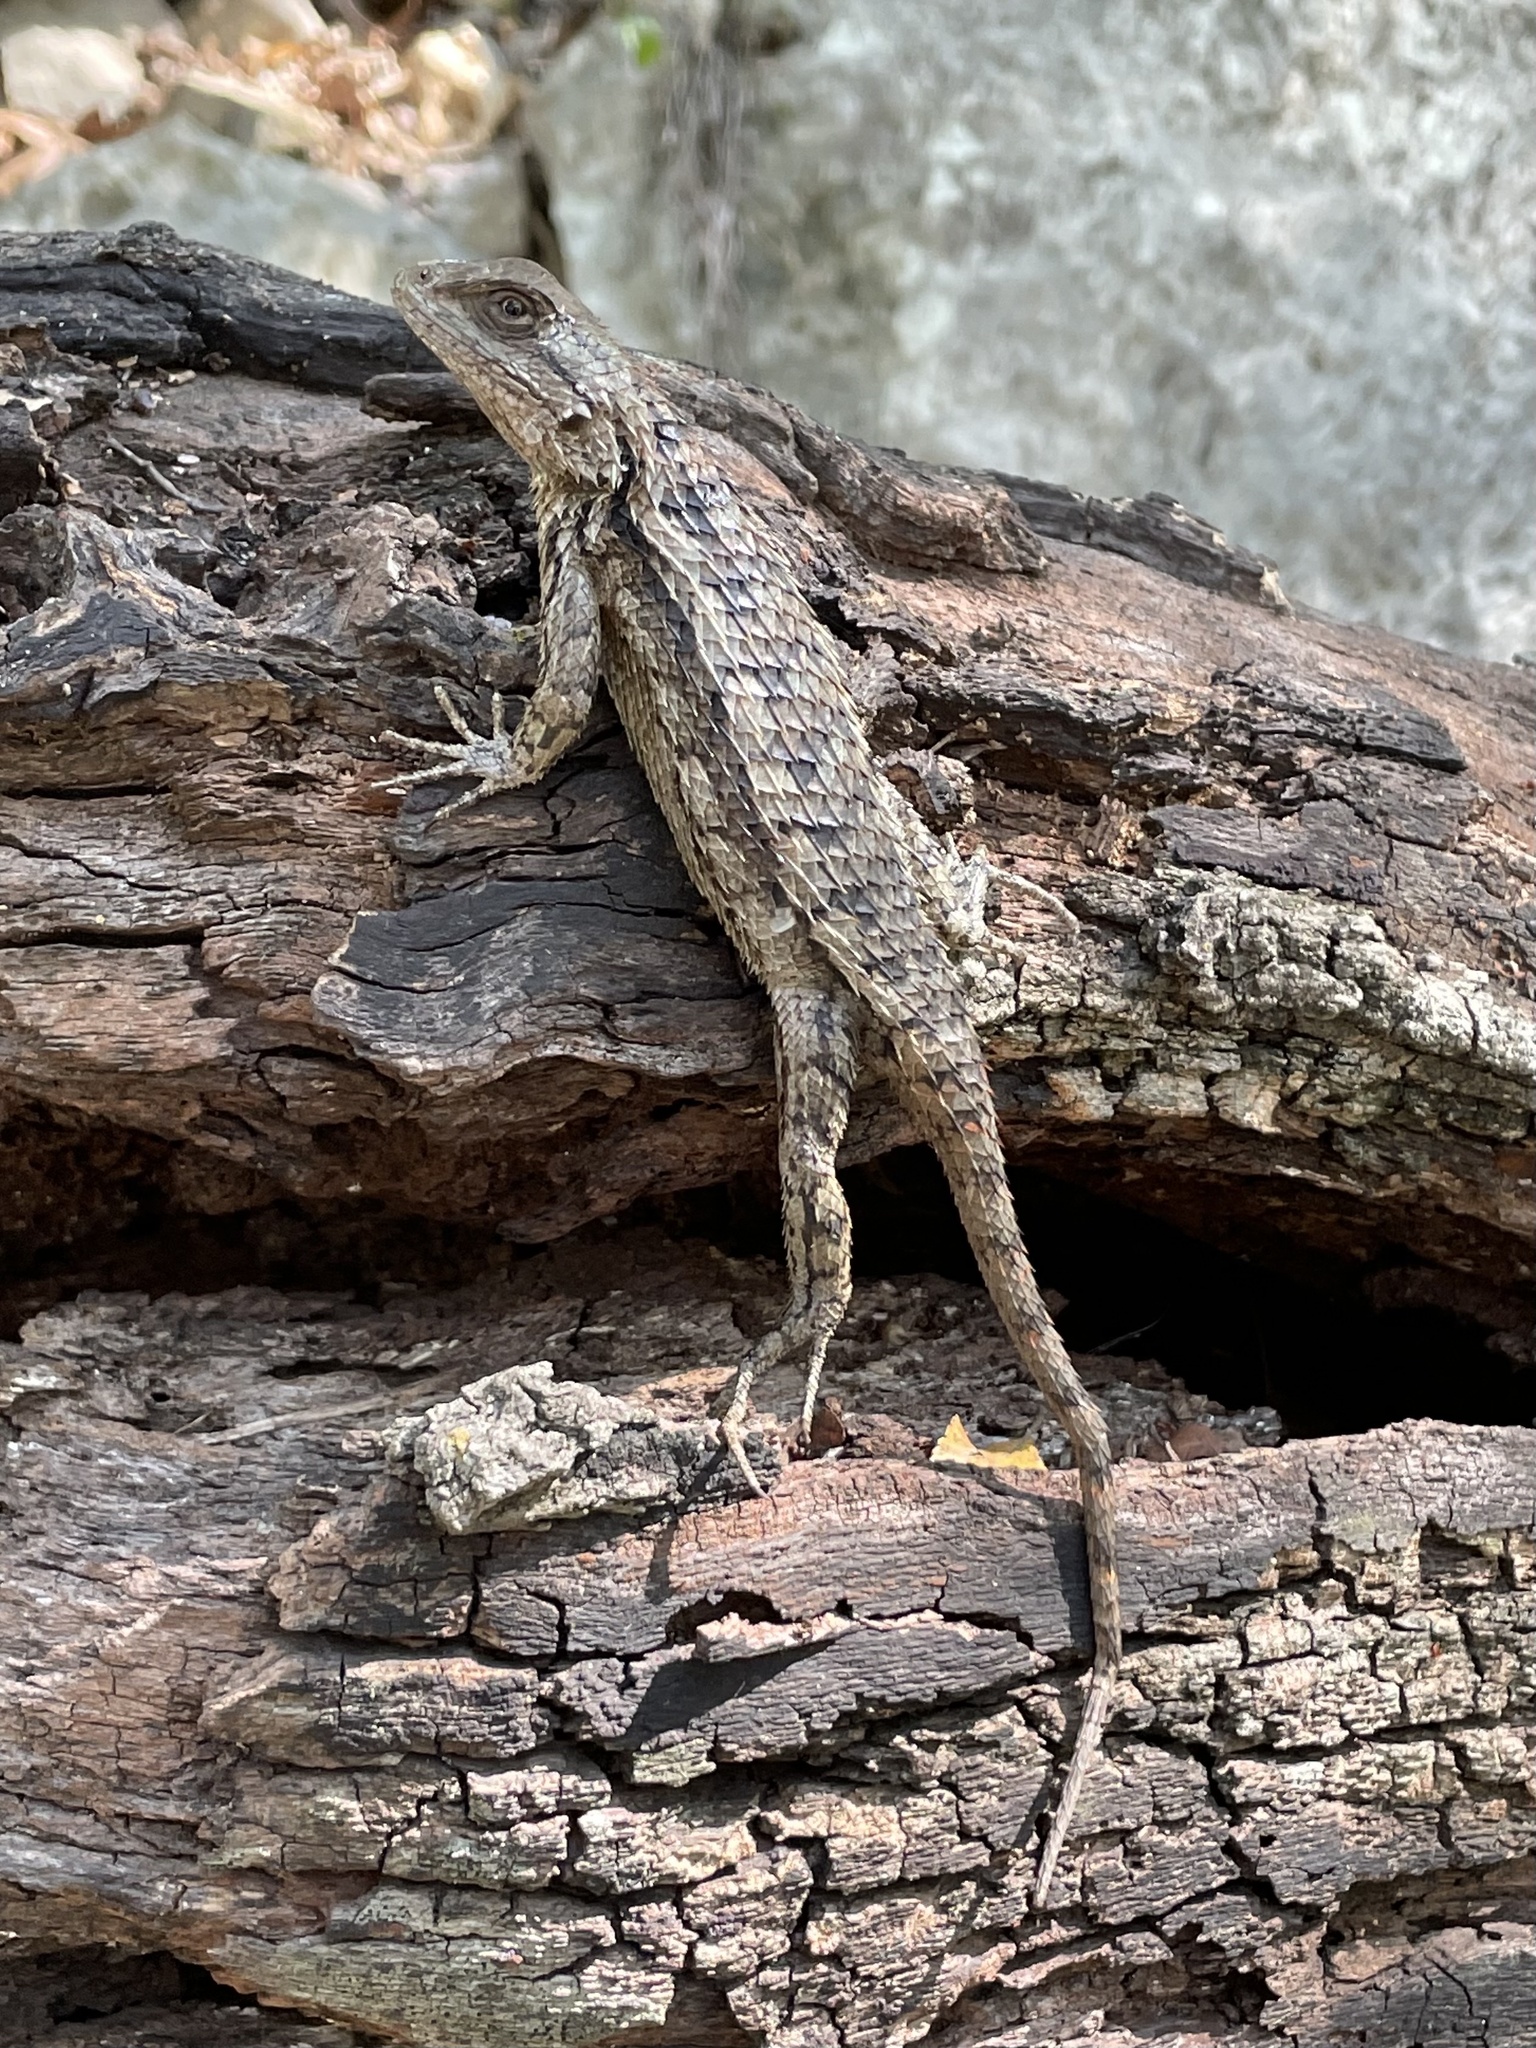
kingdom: Animalia
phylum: Chordata
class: Squamata
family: Phrynosomatidae
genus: Sceloporus
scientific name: Sceloporus olivaceus
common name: Texas spiny lizard
